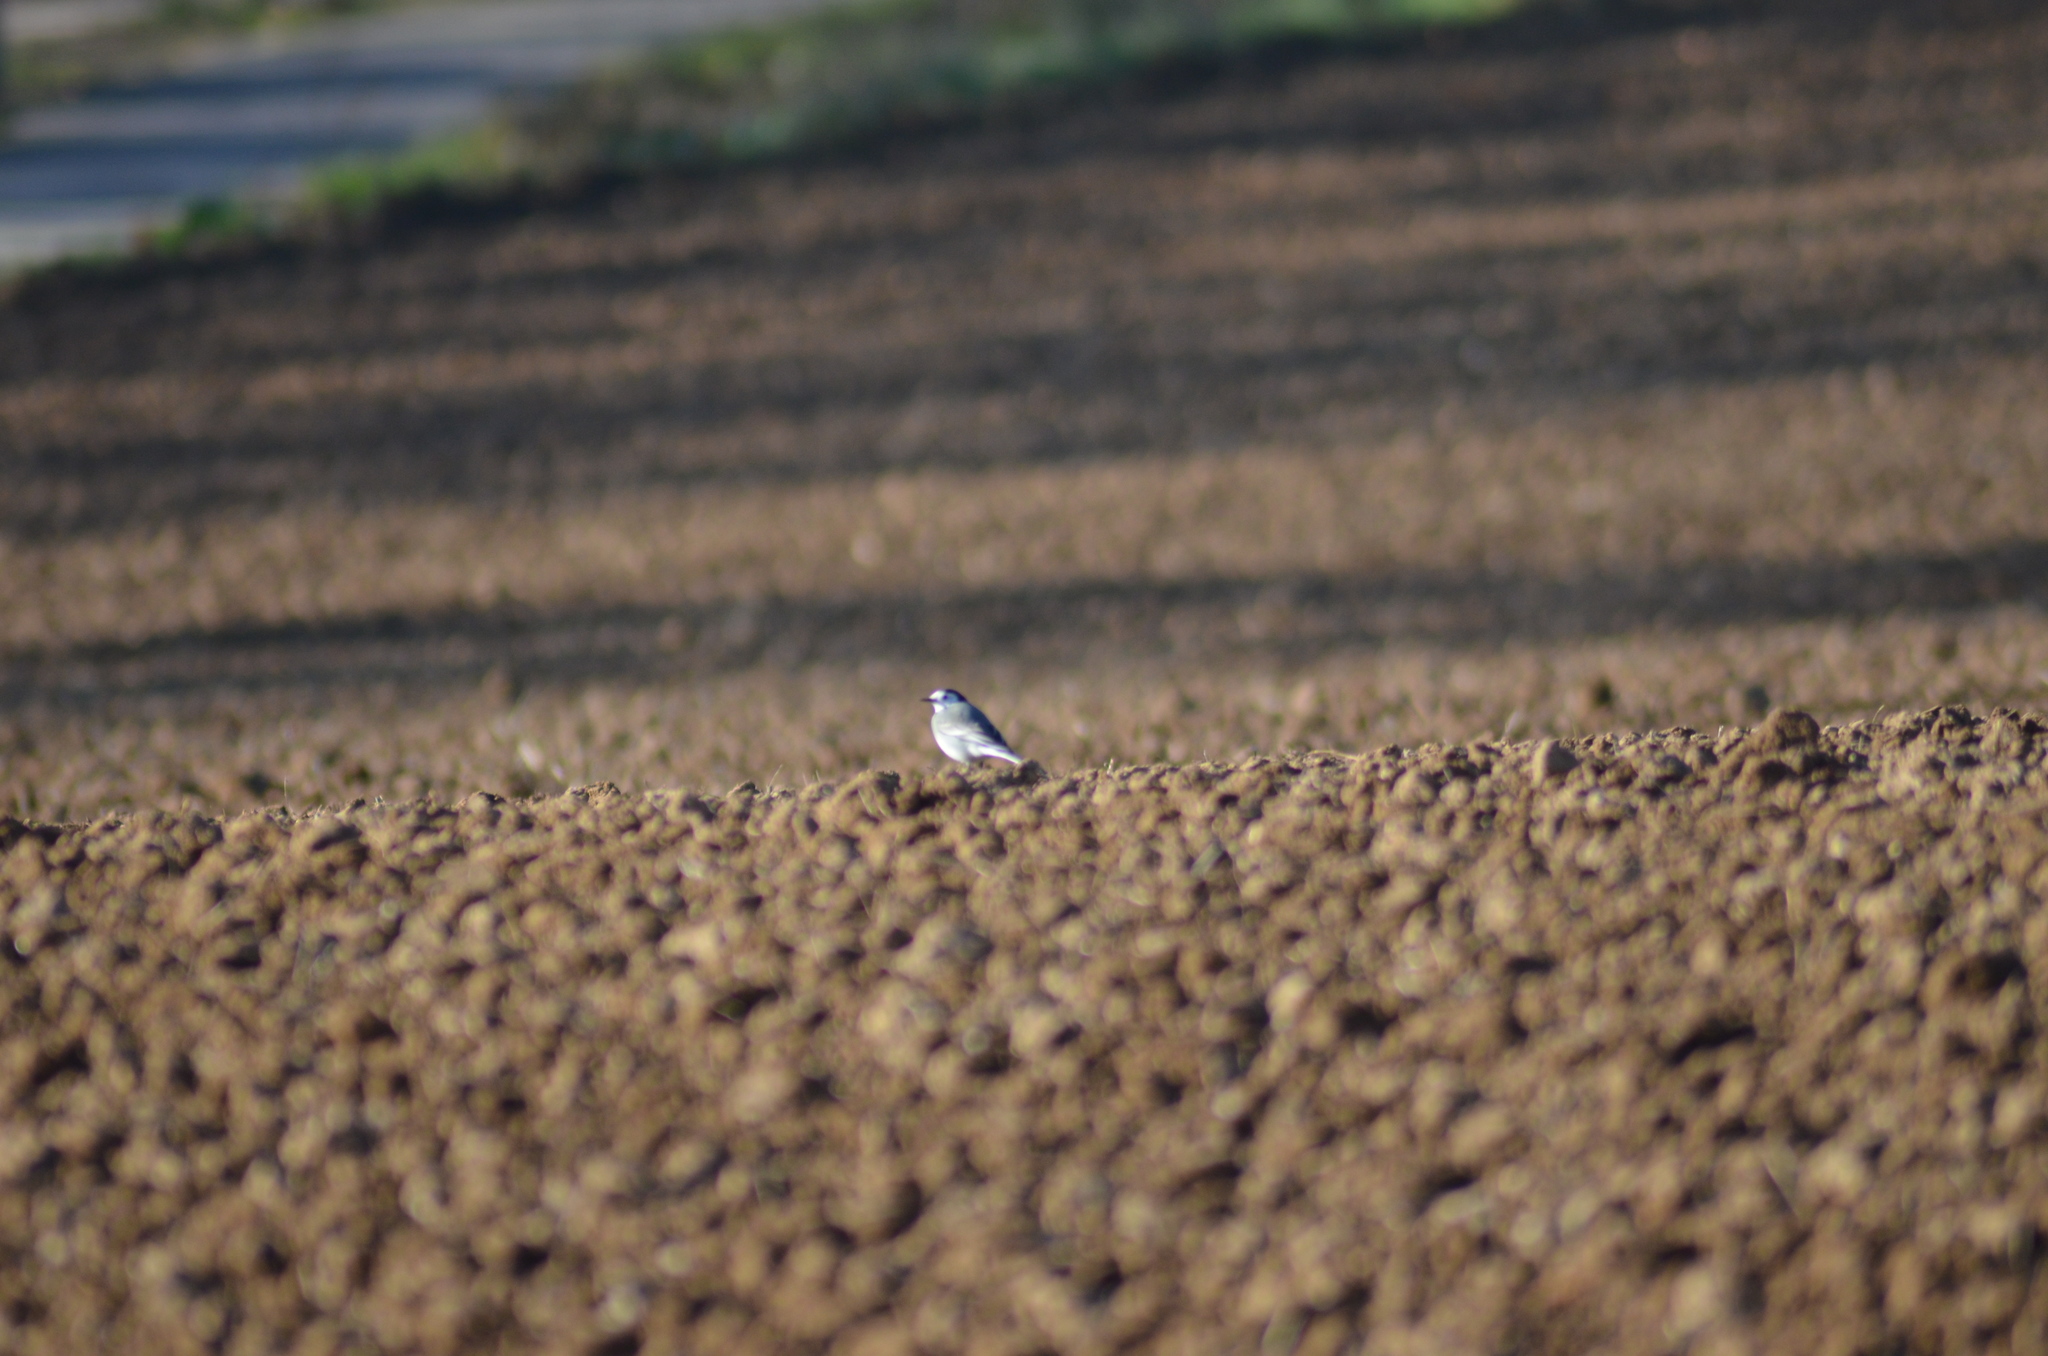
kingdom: Animalia
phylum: Chordata
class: Aves
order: Passeriformes
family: Motacillidae
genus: Motacilla
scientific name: Motacilla alba
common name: White wagtail
